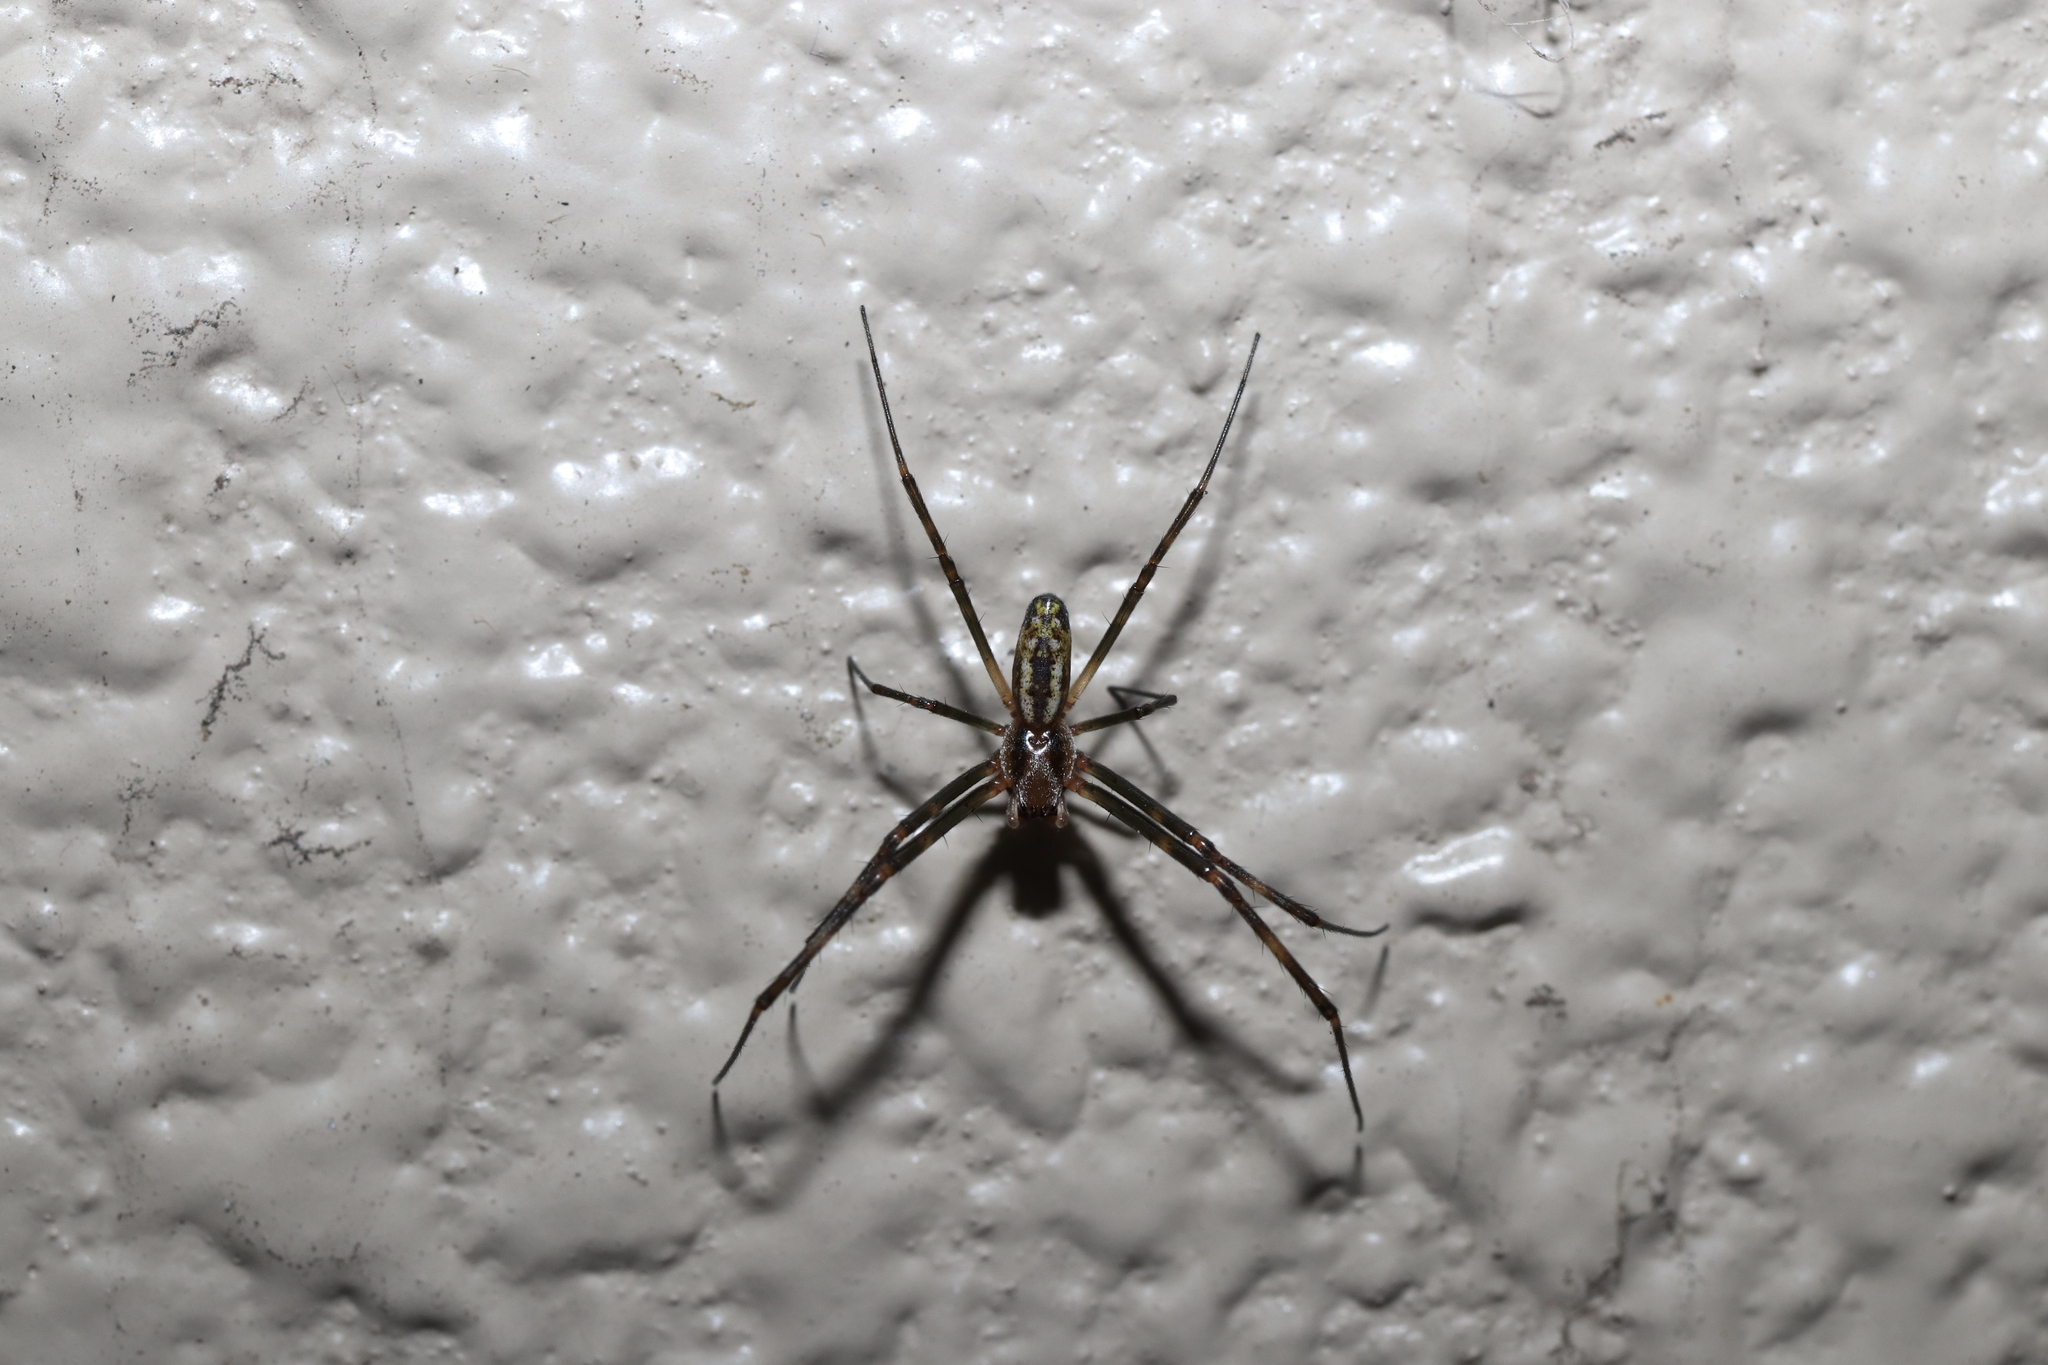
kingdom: Animalia
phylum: Arthropoda
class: Arachnida
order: Araneae
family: Araneidae
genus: Trichonephila
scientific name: Trichonephila clavata
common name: Jorō spider
